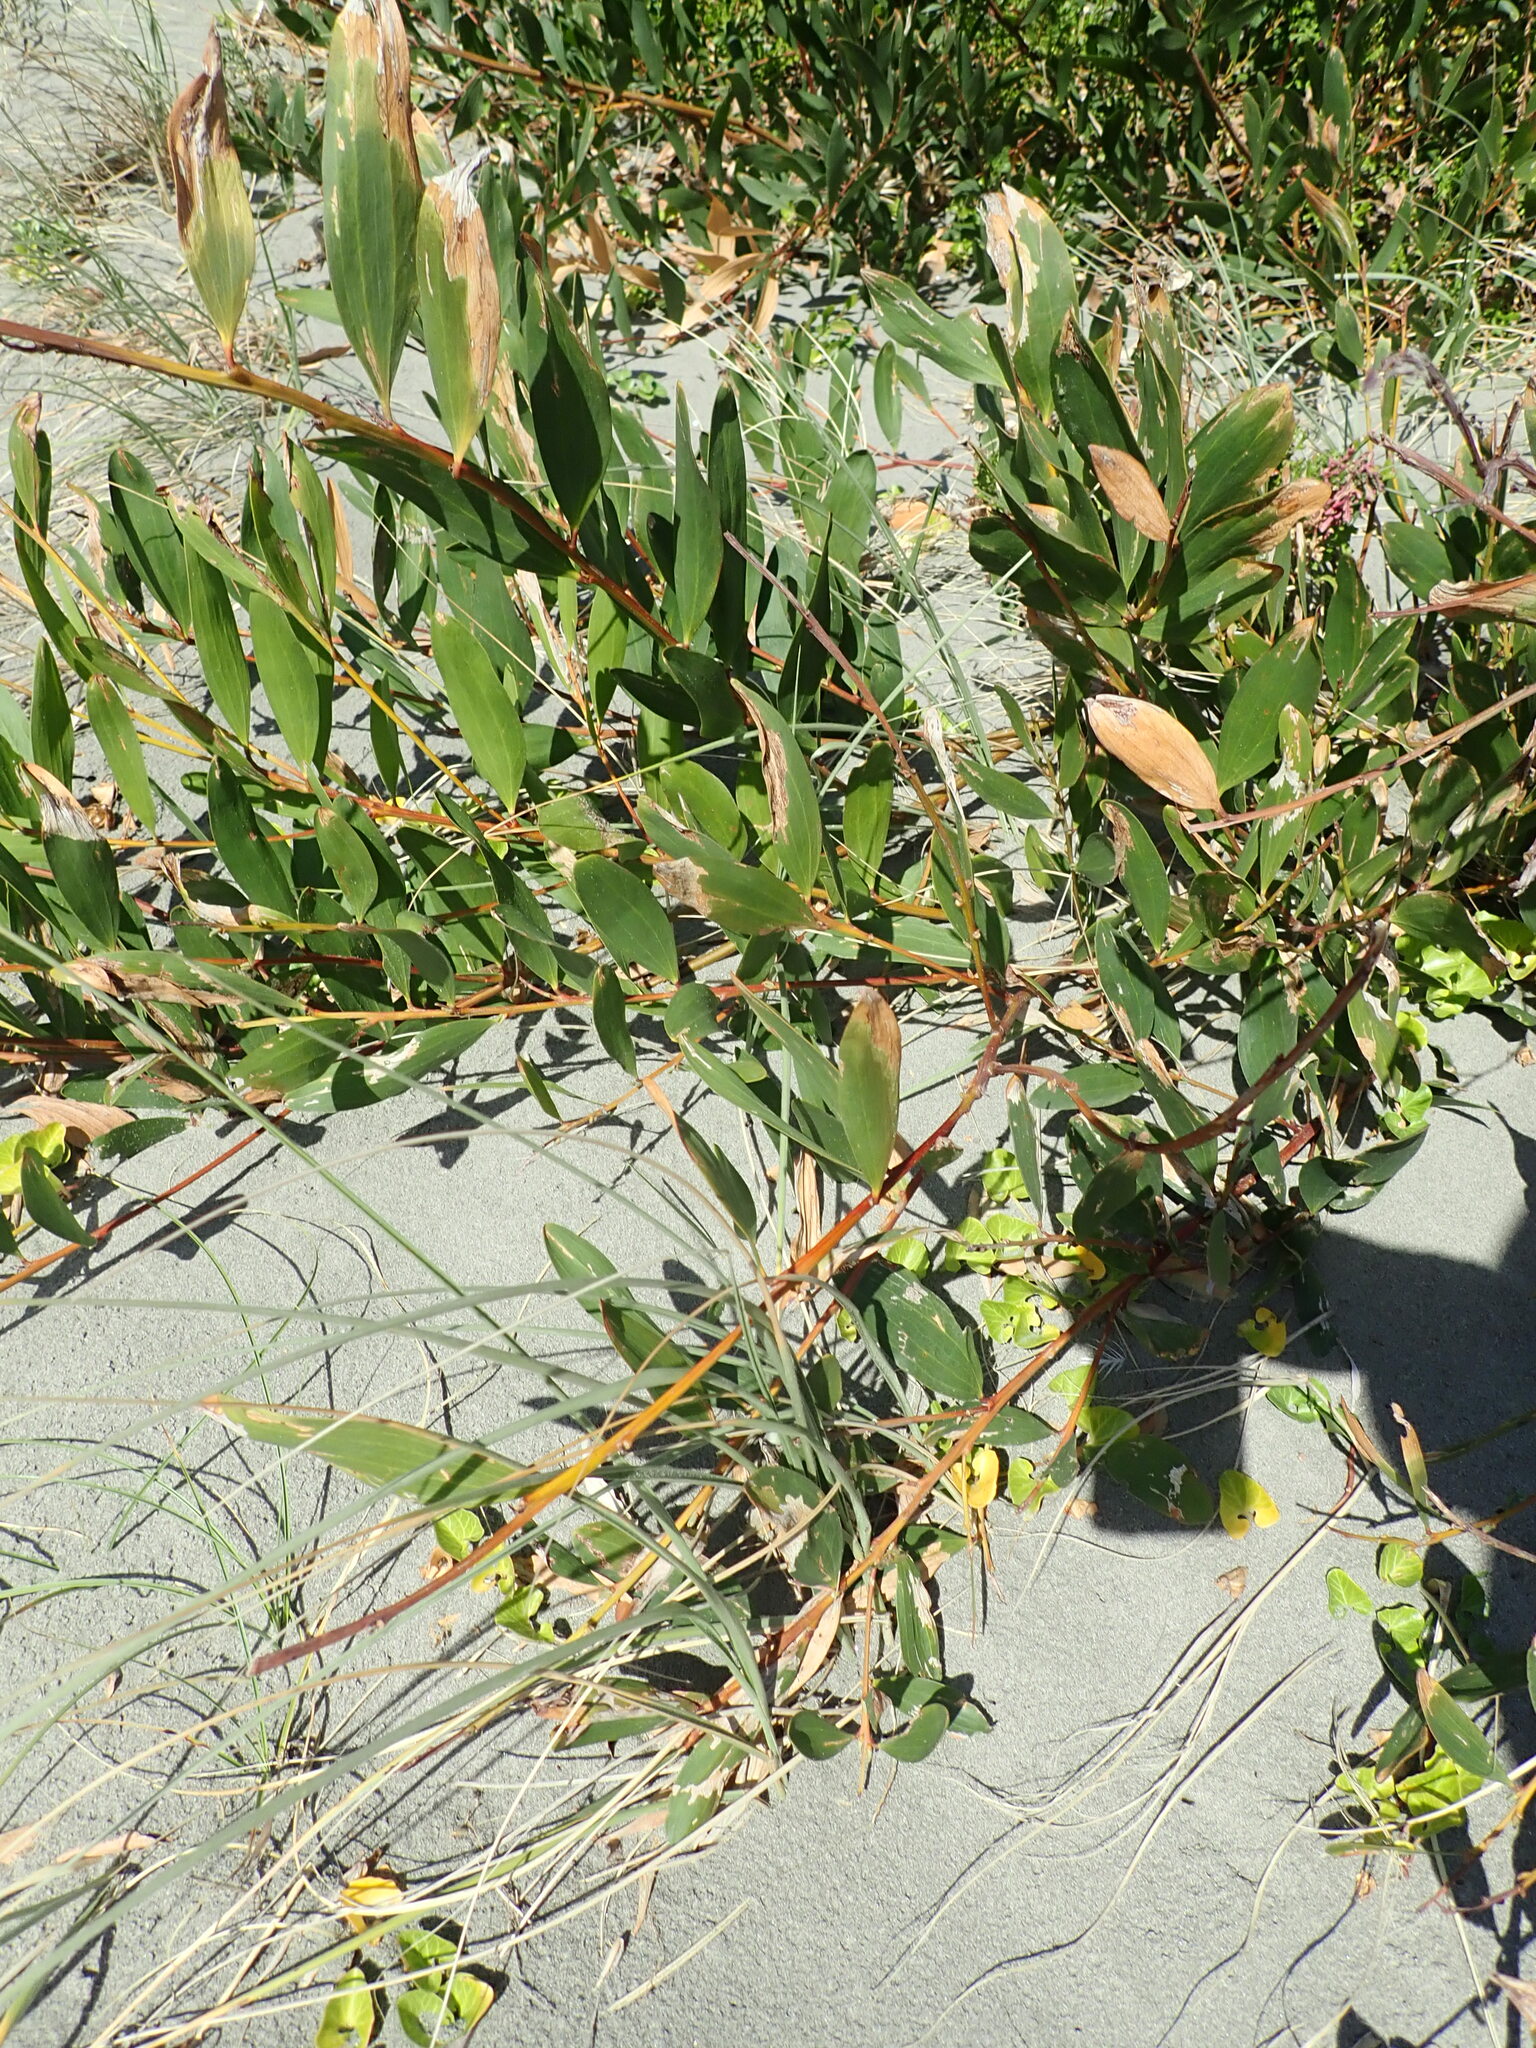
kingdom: Plantae
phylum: Tracheophyta
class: Magnoliopsida
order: Fabales
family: Fabaceae
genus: Acacia
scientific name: Acacia longifolia
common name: Sydney golden wattle
